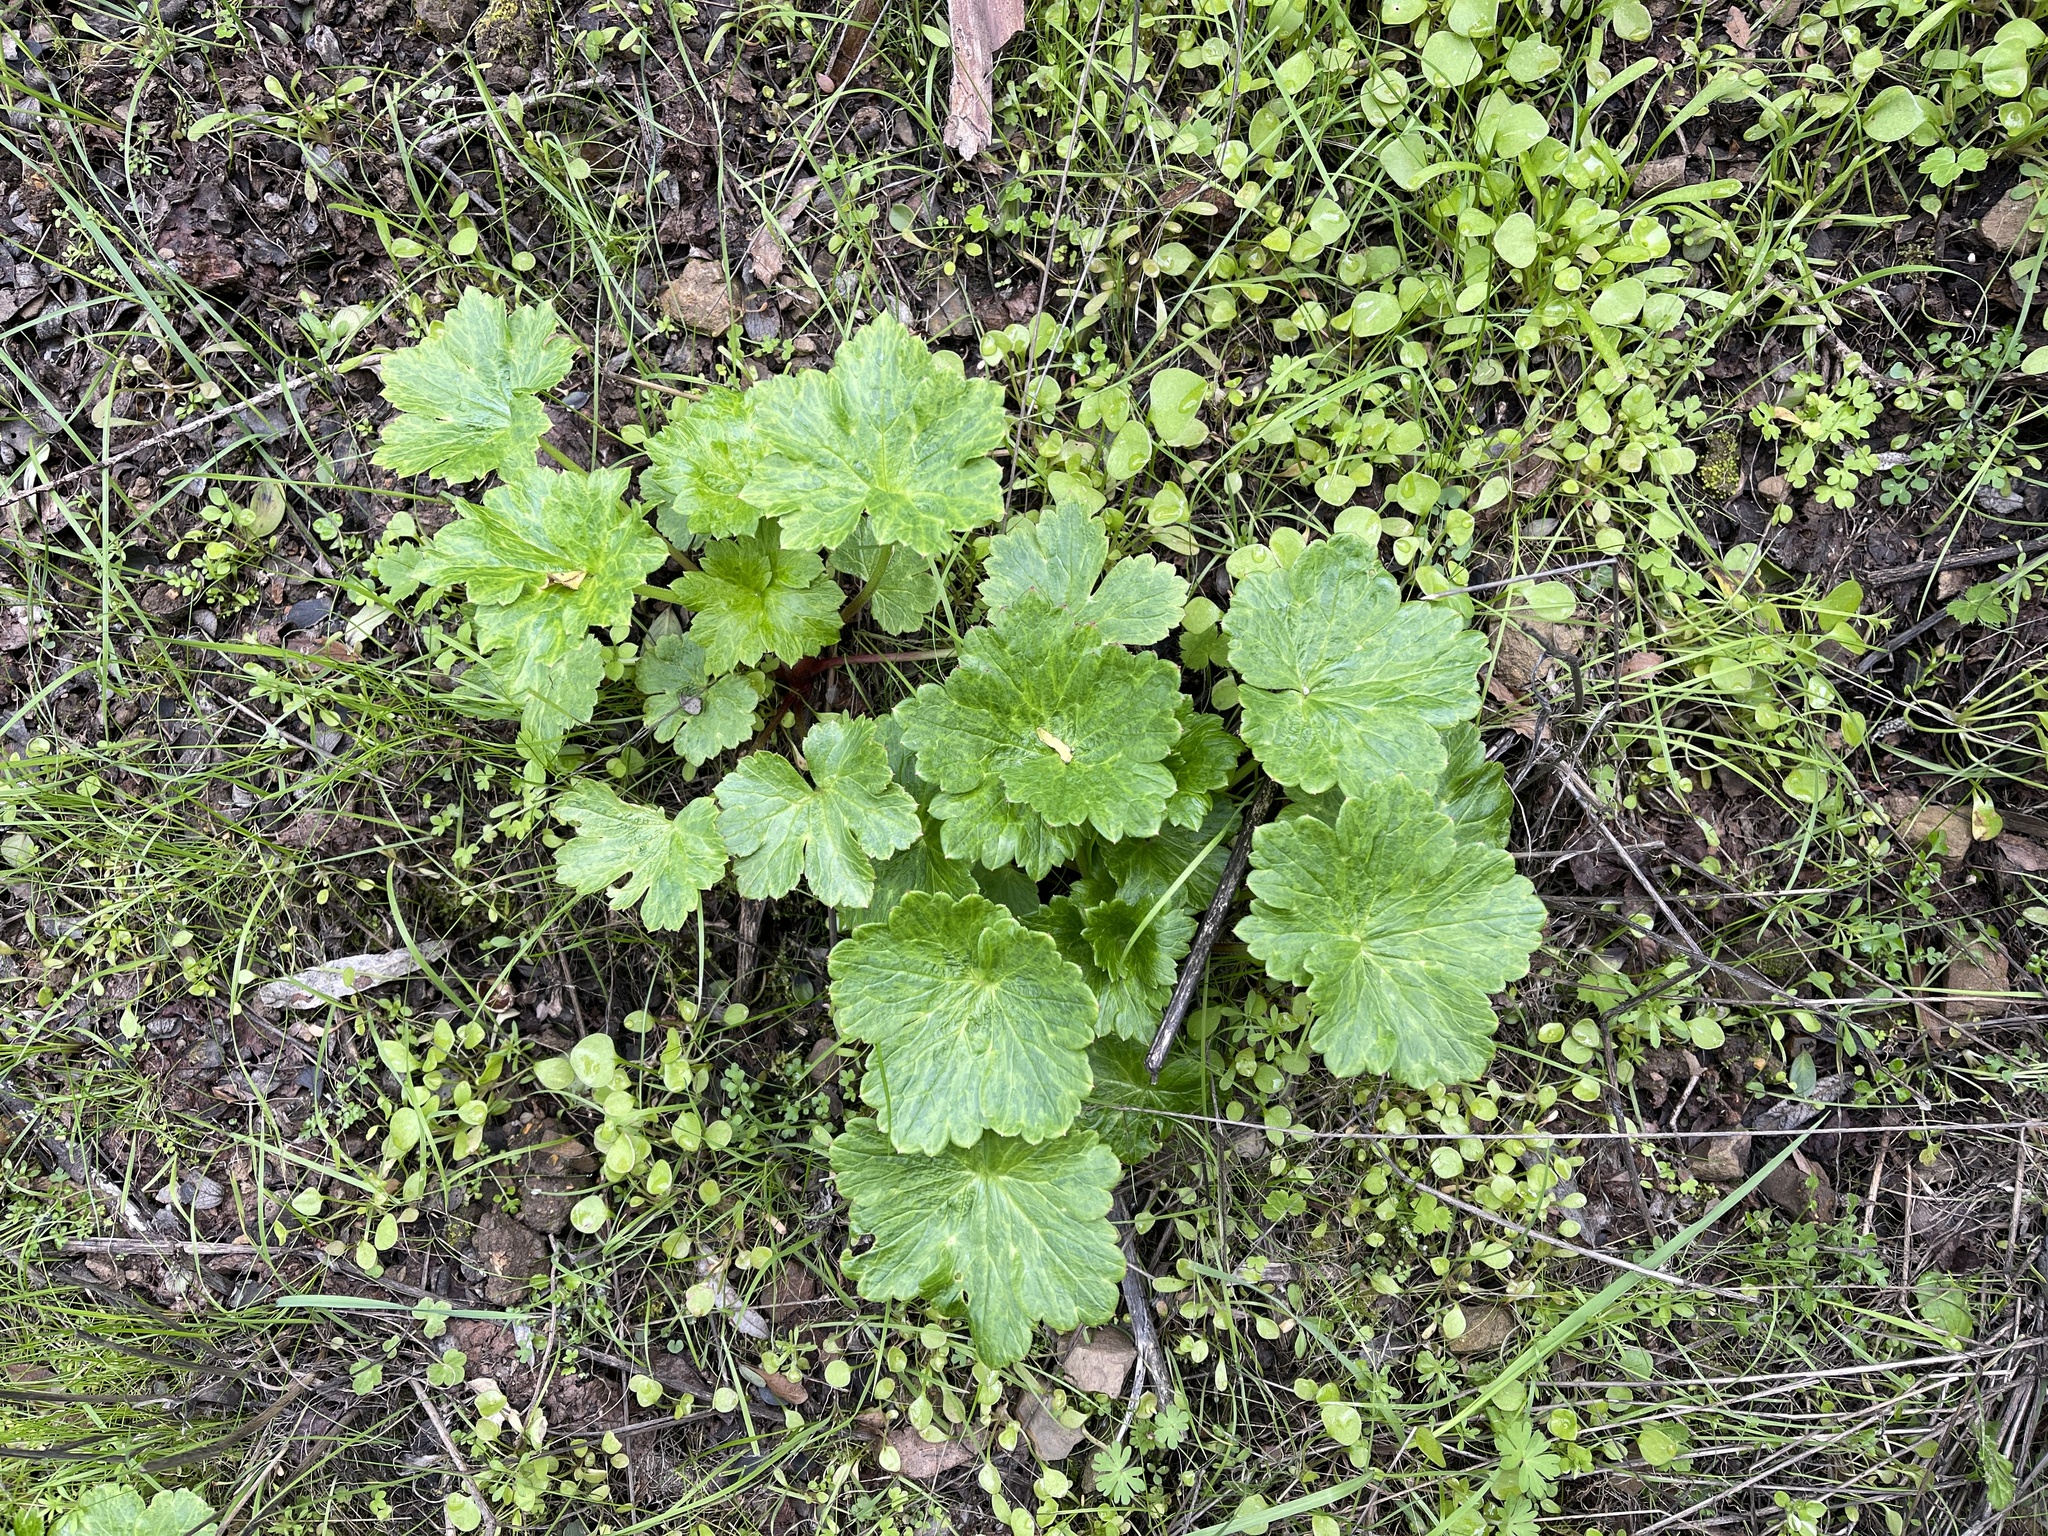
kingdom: Plantae
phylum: Tracheophyta
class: Magnoliopsida
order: Ranunculales
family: Ranunculaceae
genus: Delphinium
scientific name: Delphinium californicum
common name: California larkspur
